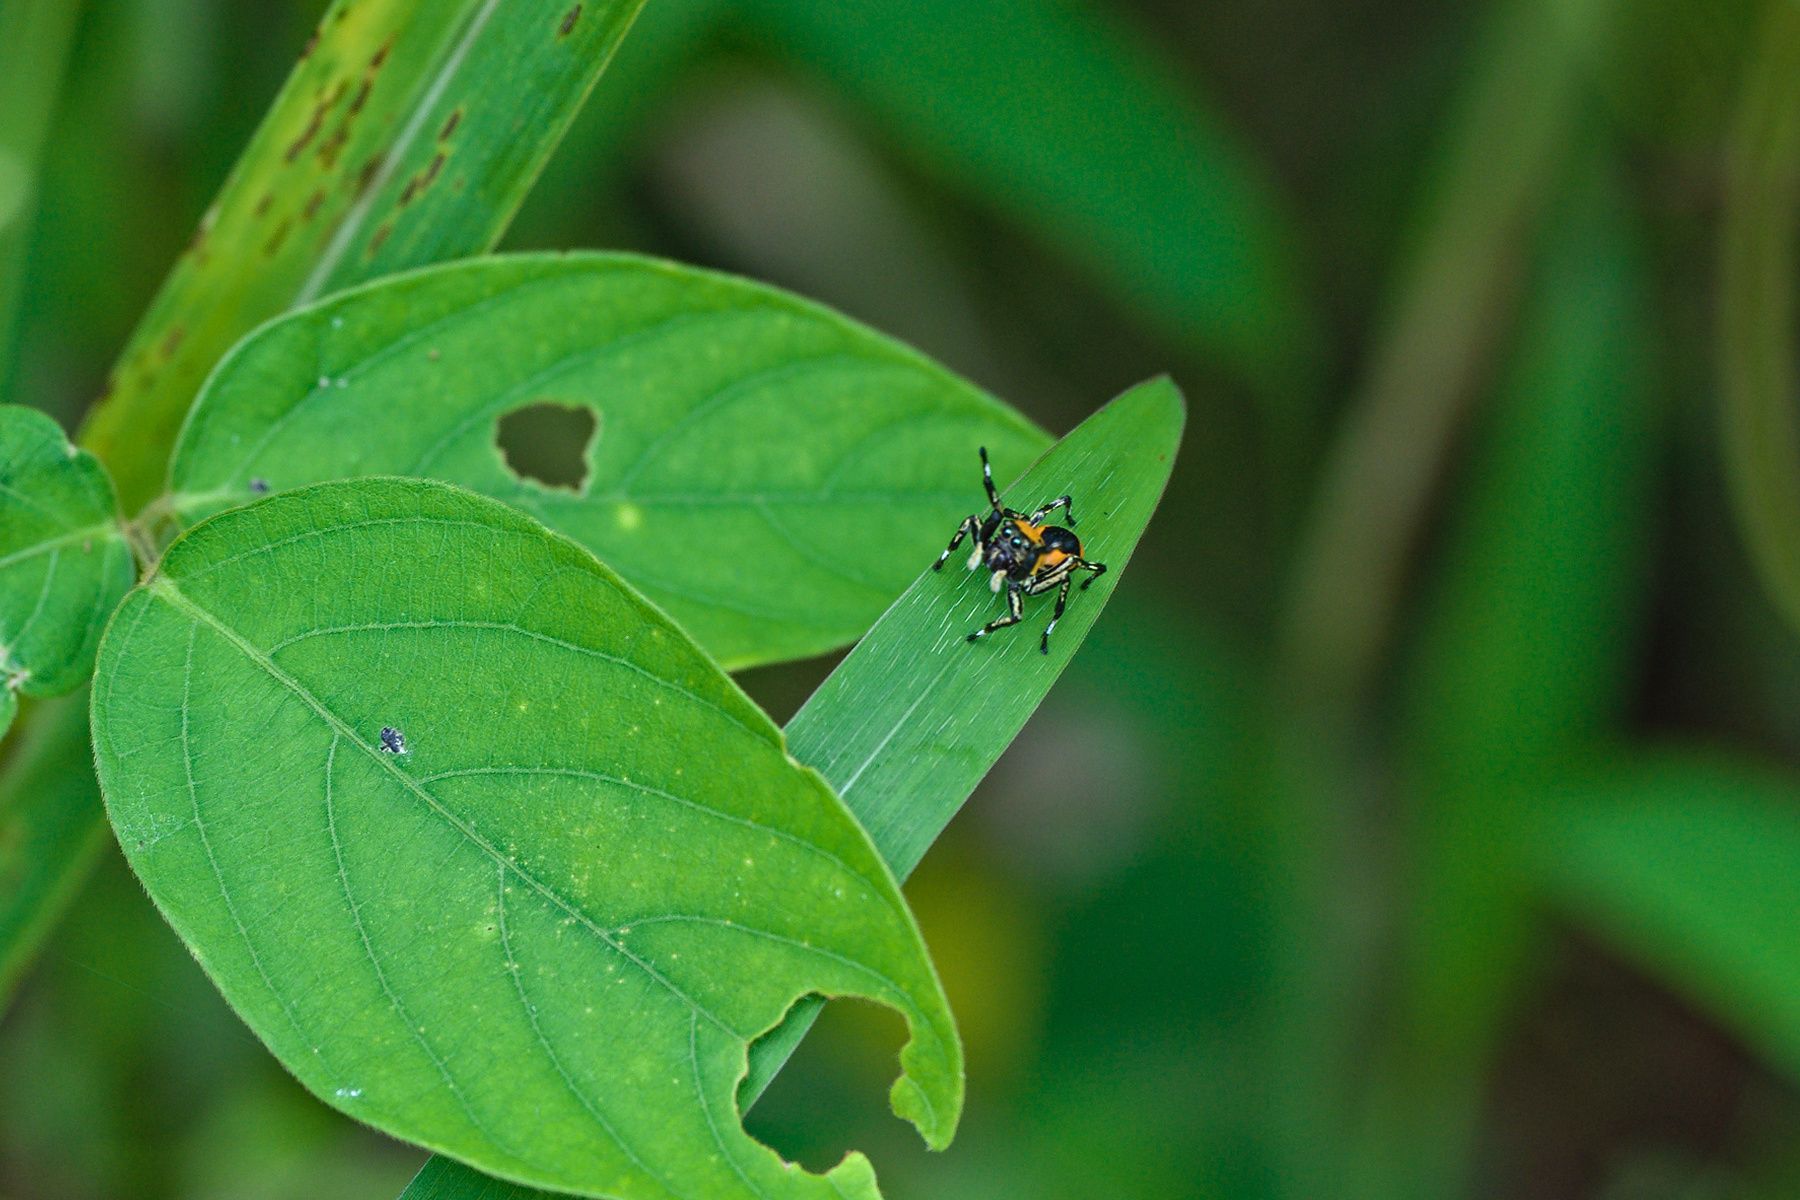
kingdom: Animalia
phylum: Arthropoda
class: Arachnida
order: Araneae
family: Salticidae
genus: Phiale
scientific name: Phiale mimica
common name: Jumping spiders
